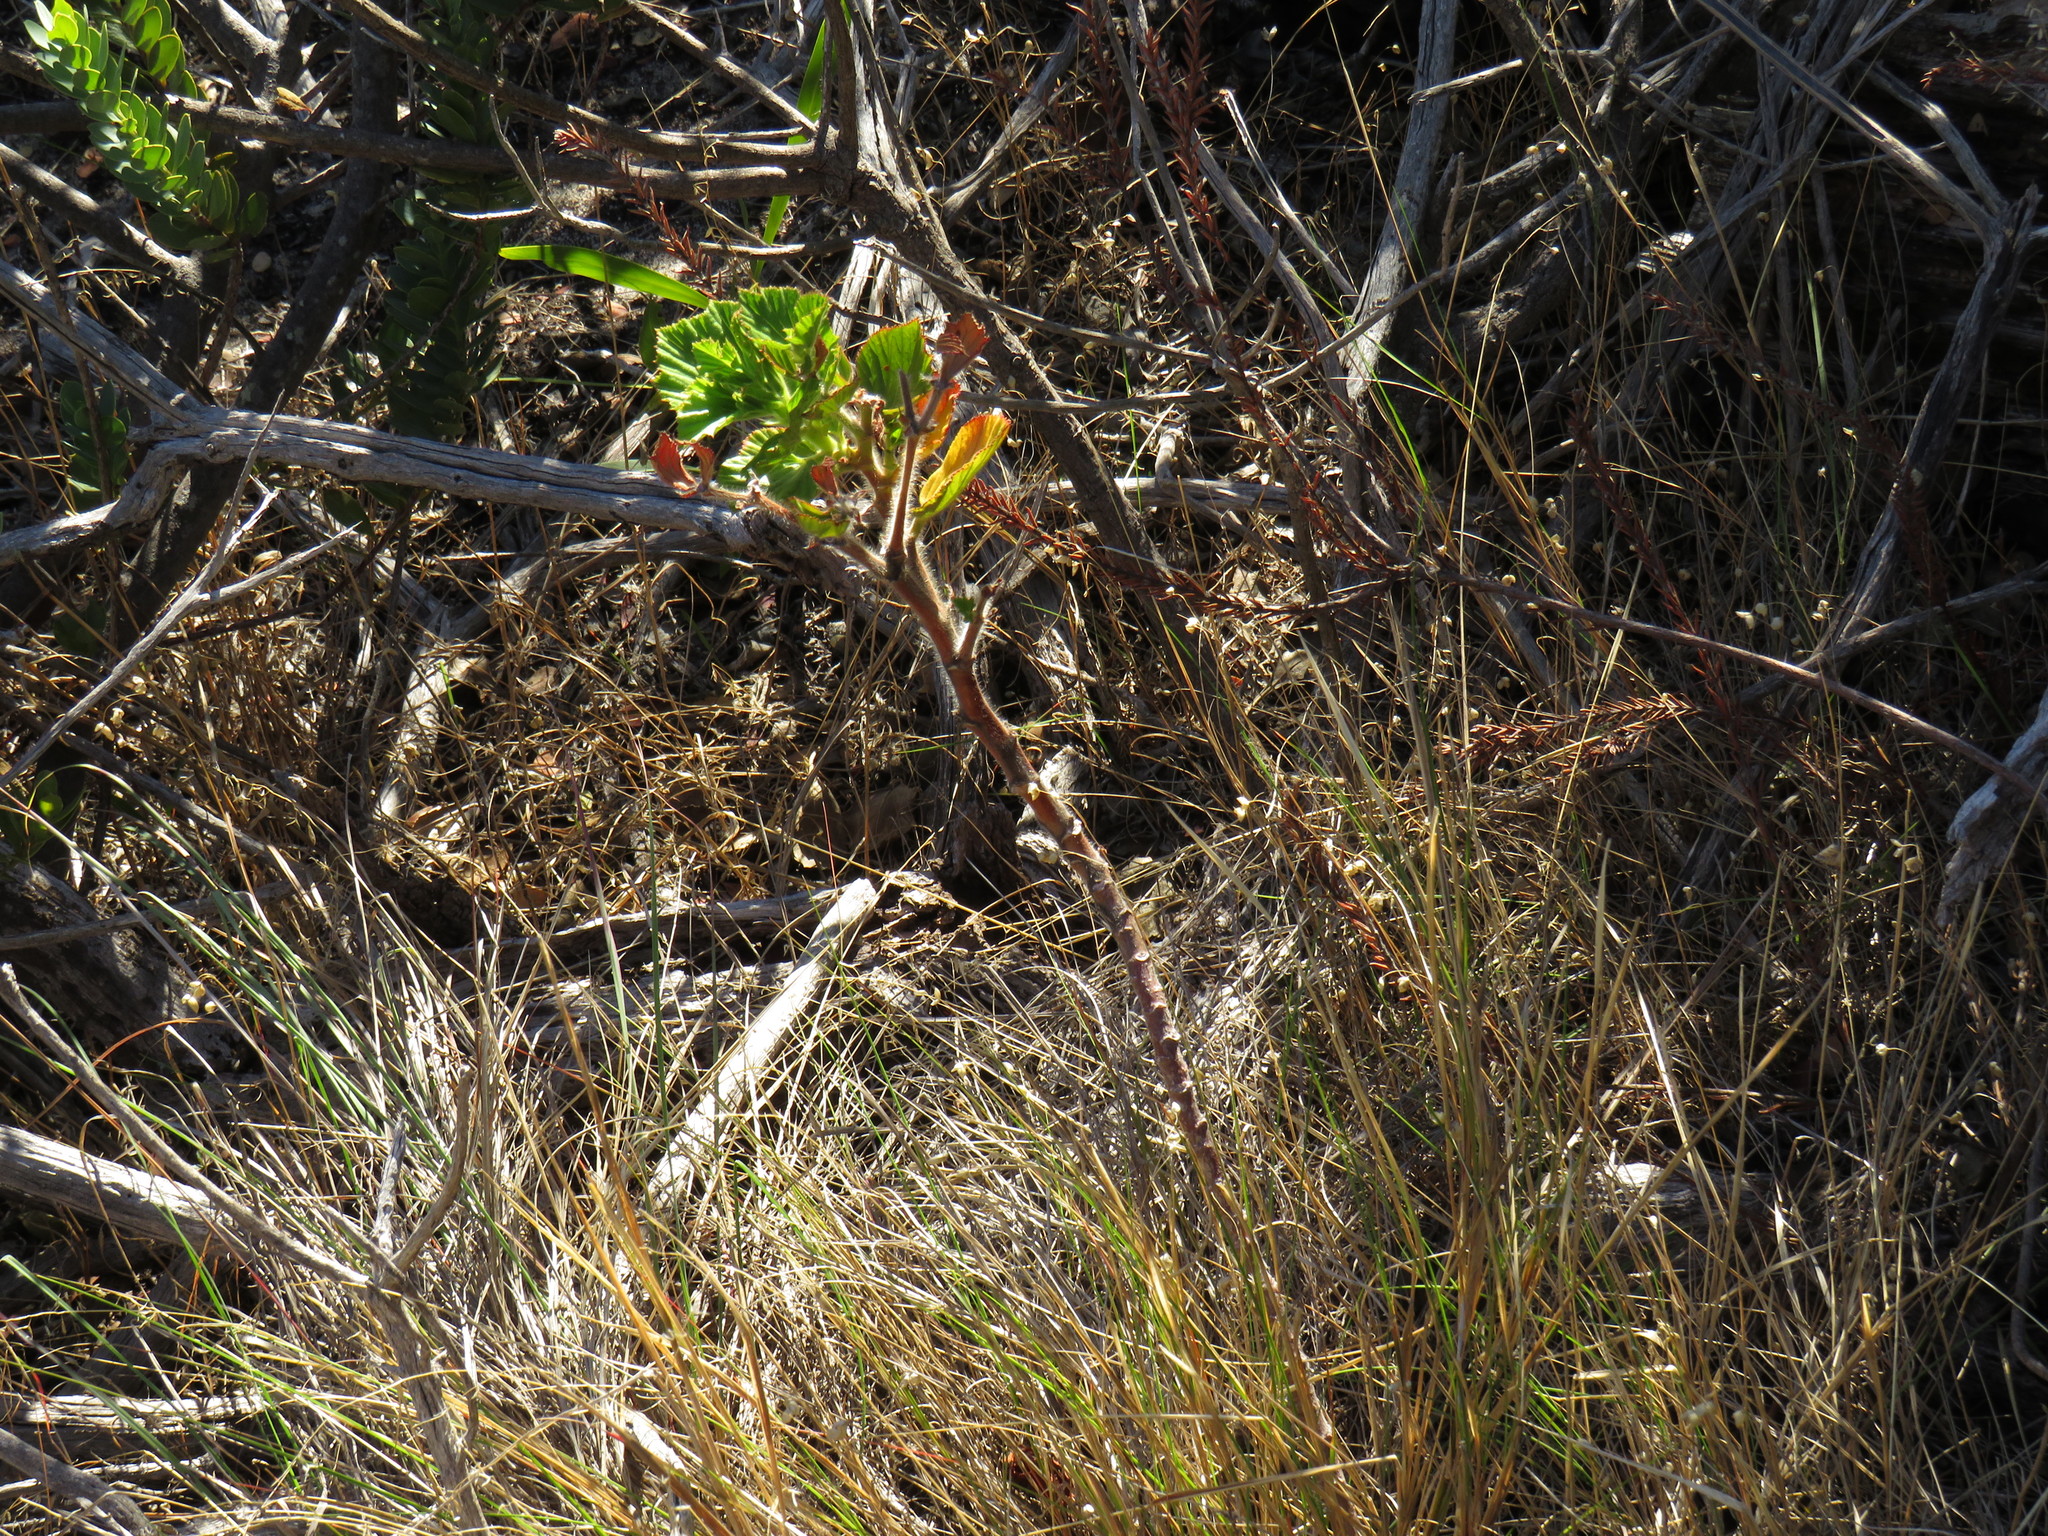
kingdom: Plantae
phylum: Tracheophyta
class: Magnoliopsida
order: Geraniales
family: Geraniaceae
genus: Pelargonium
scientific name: Pelargonium cucullatum
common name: Tree pelargonium
